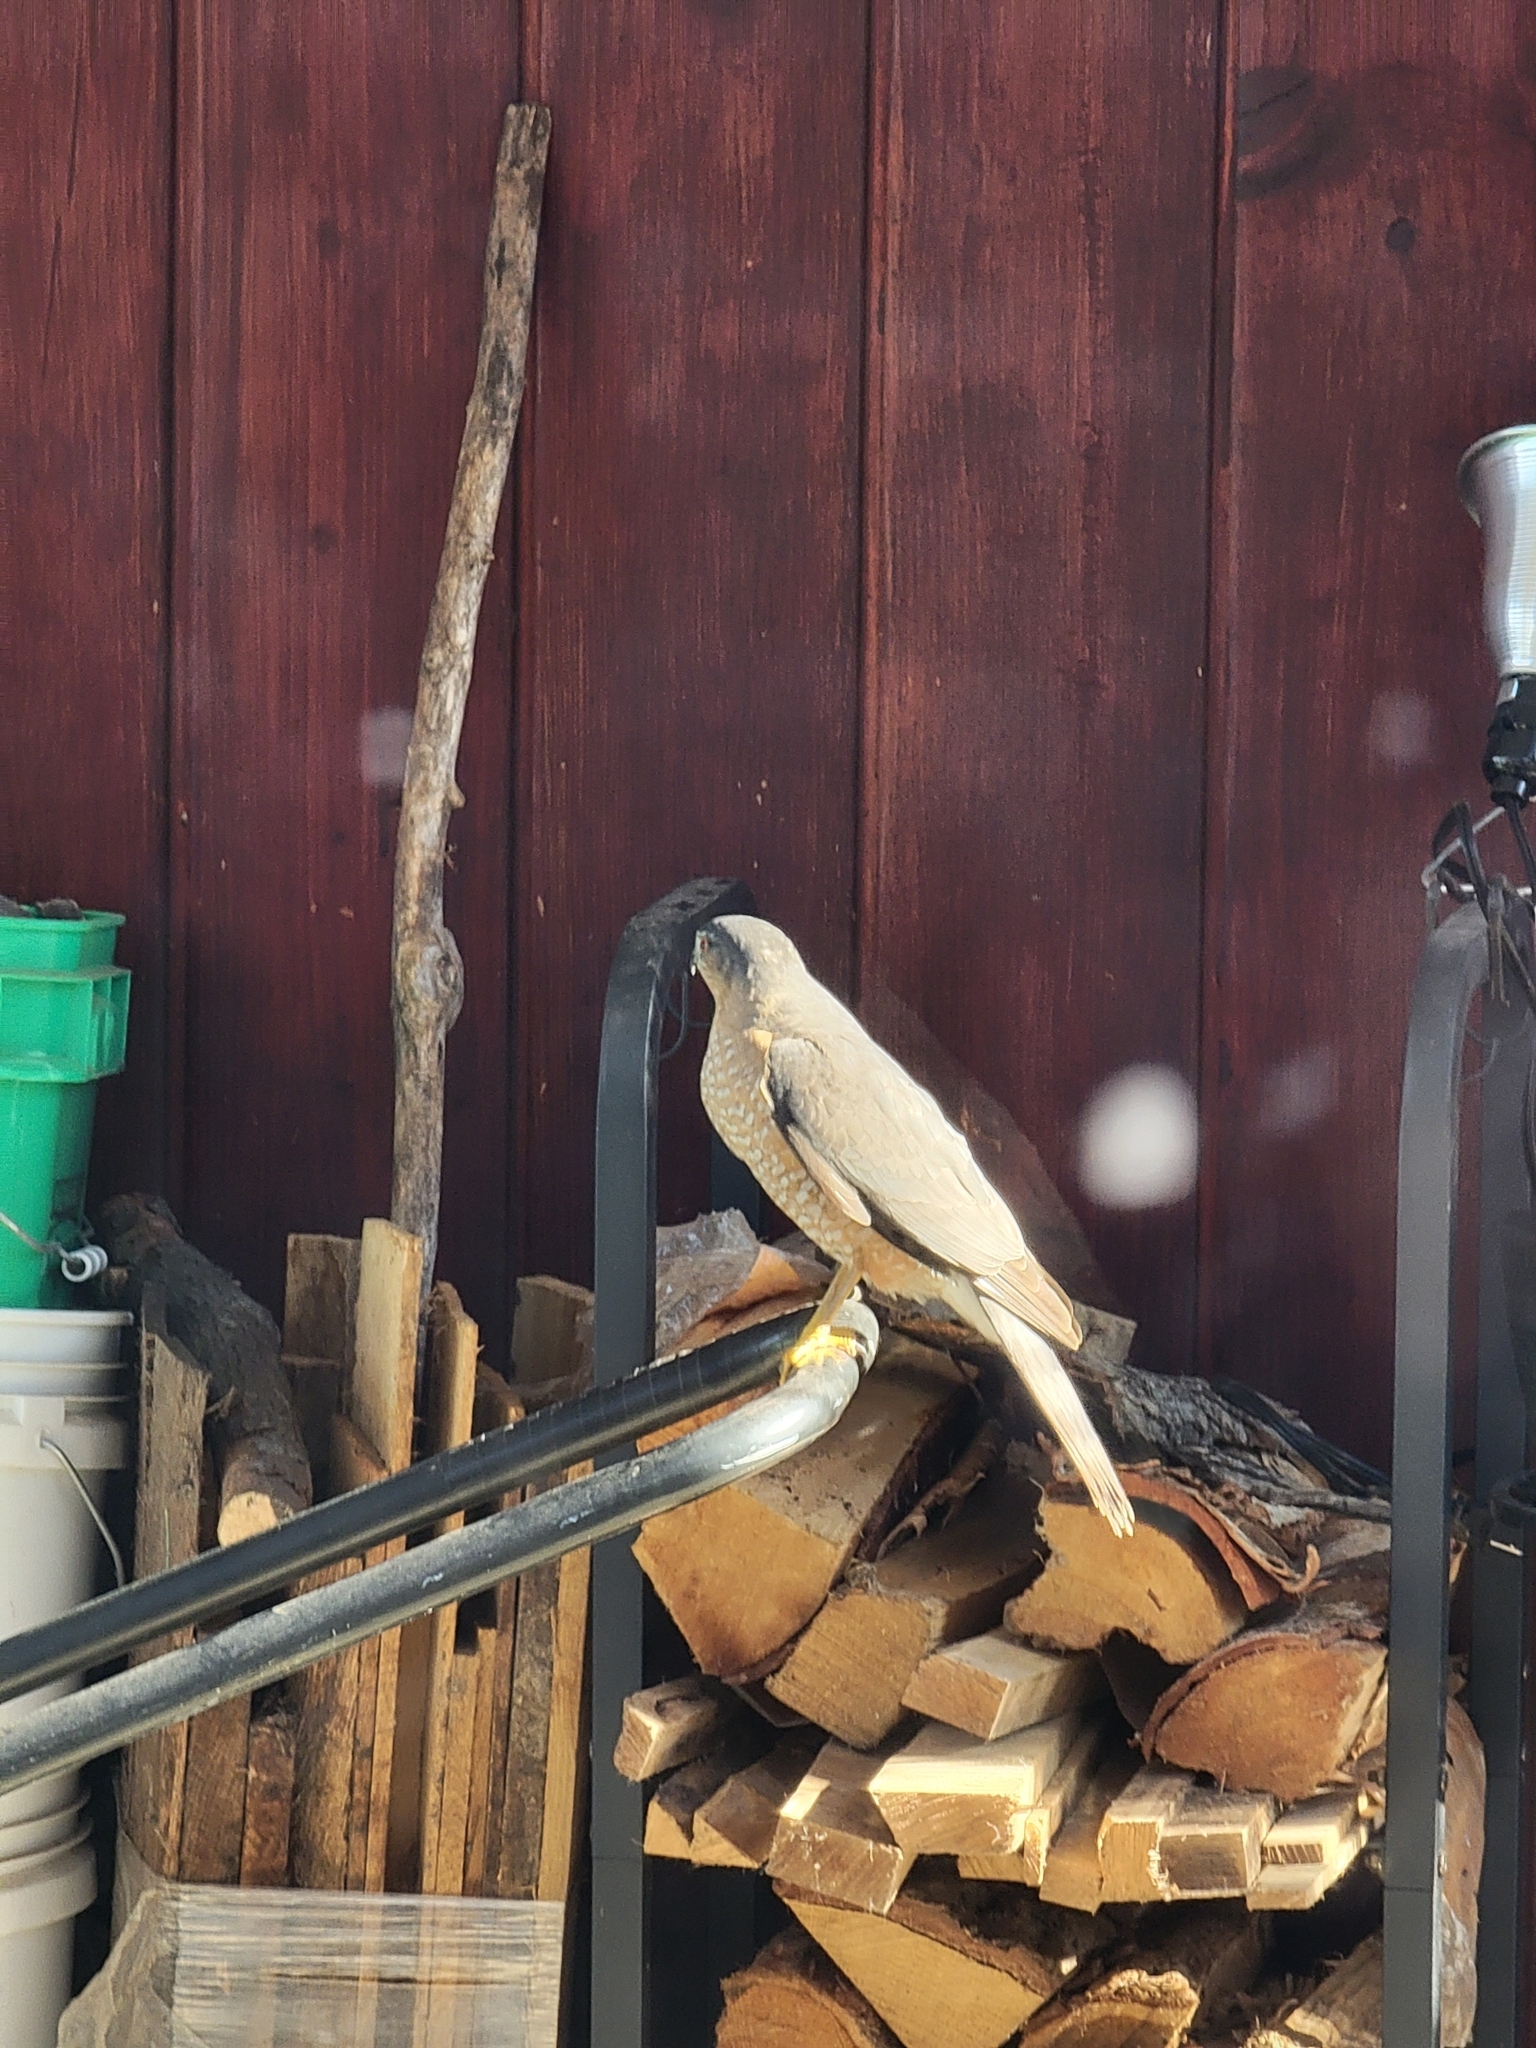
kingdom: Animalia
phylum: Chordata
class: Aves
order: Accipitriformes
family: Accipitridae
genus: Accipiter
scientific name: Accipiter striatus
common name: Sharp-shinned hawk
